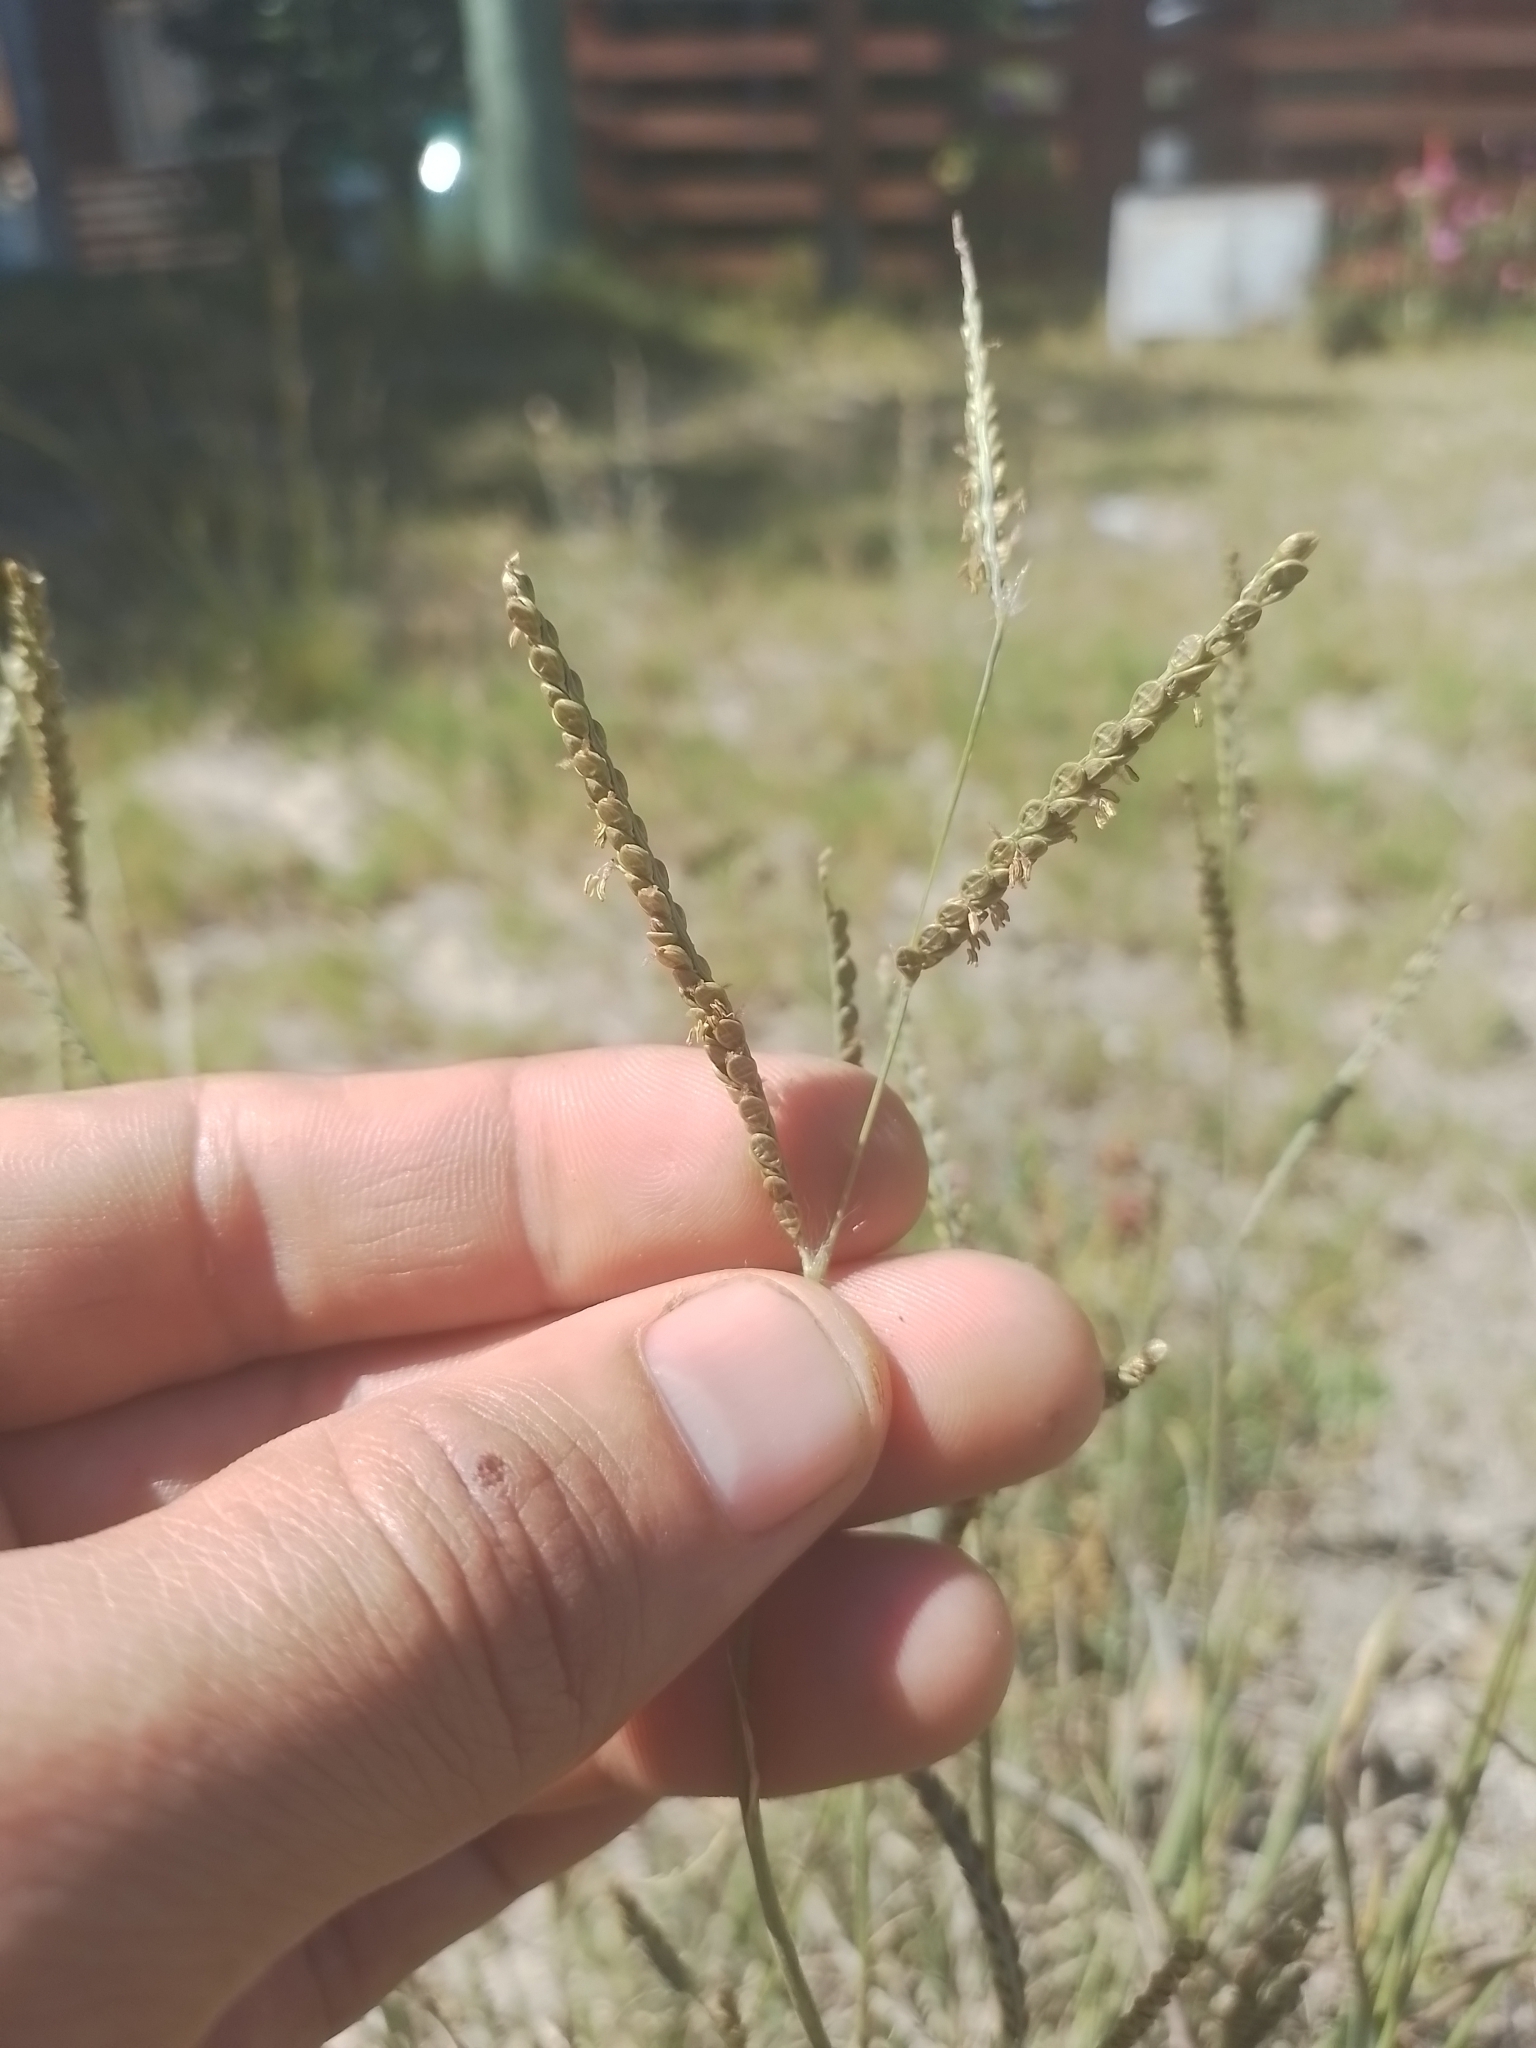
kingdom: Plantae
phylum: Tracheophyta
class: Liliopsida
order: Poales
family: Poaceae
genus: Paspalum
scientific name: Paspalum plicatulum
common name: Top paspalum
